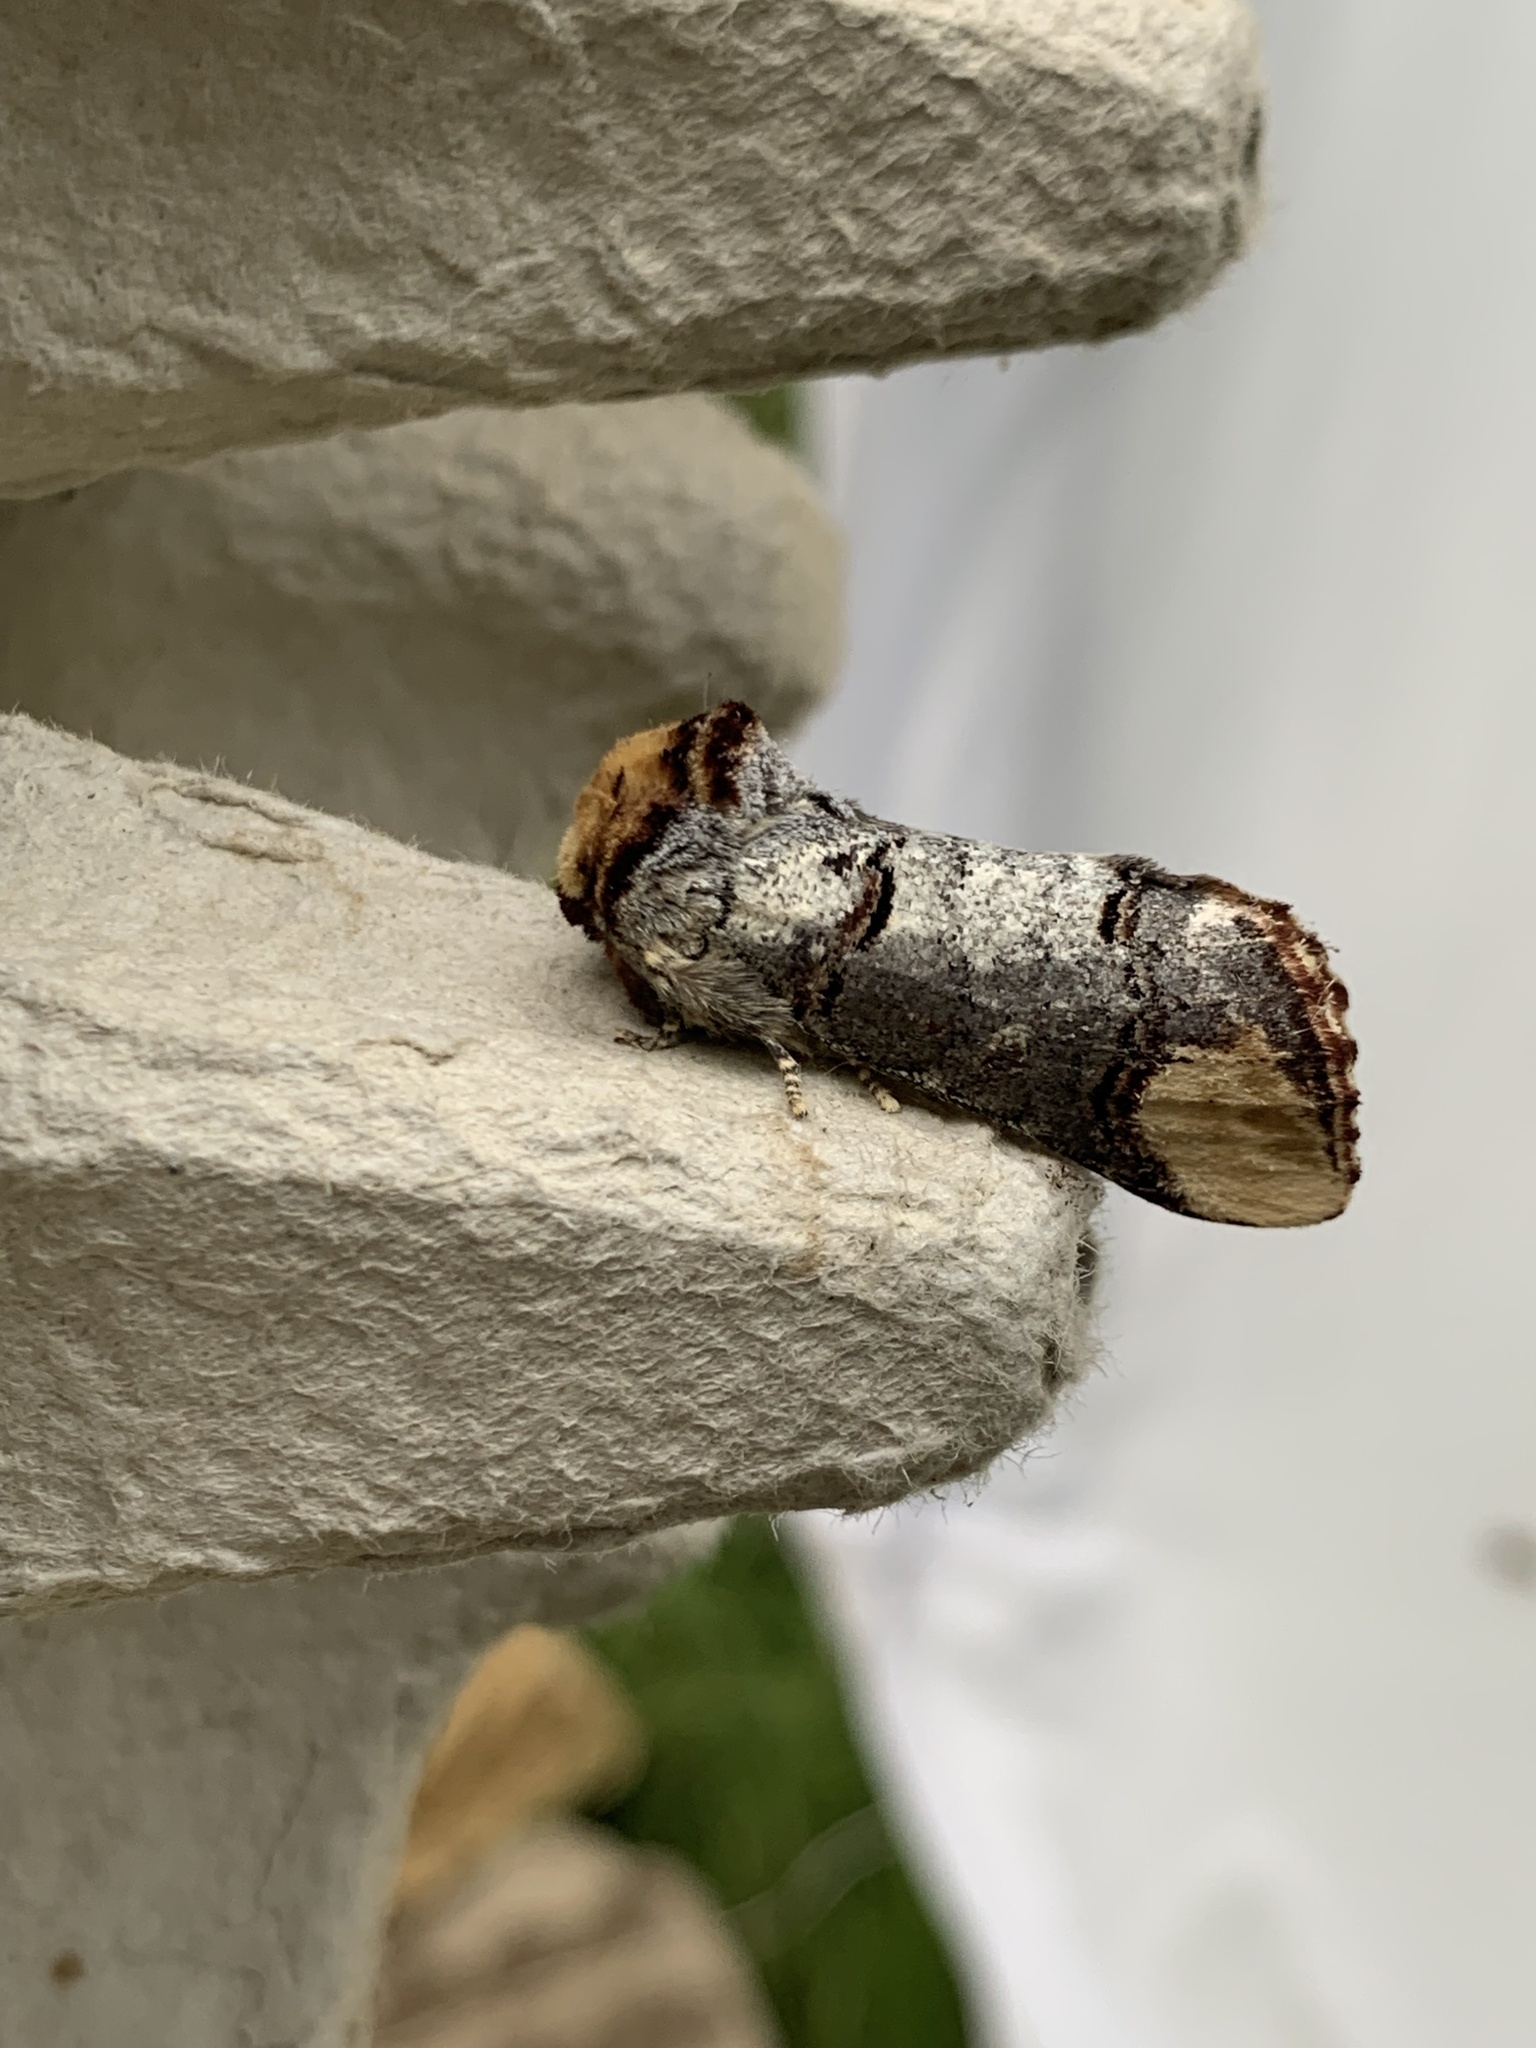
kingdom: Animalia
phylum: Arthropoda
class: Insecta
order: Lepidoptera
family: Notodontidae
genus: Phalera
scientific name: Phalera bucephala
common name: Buff-tip
